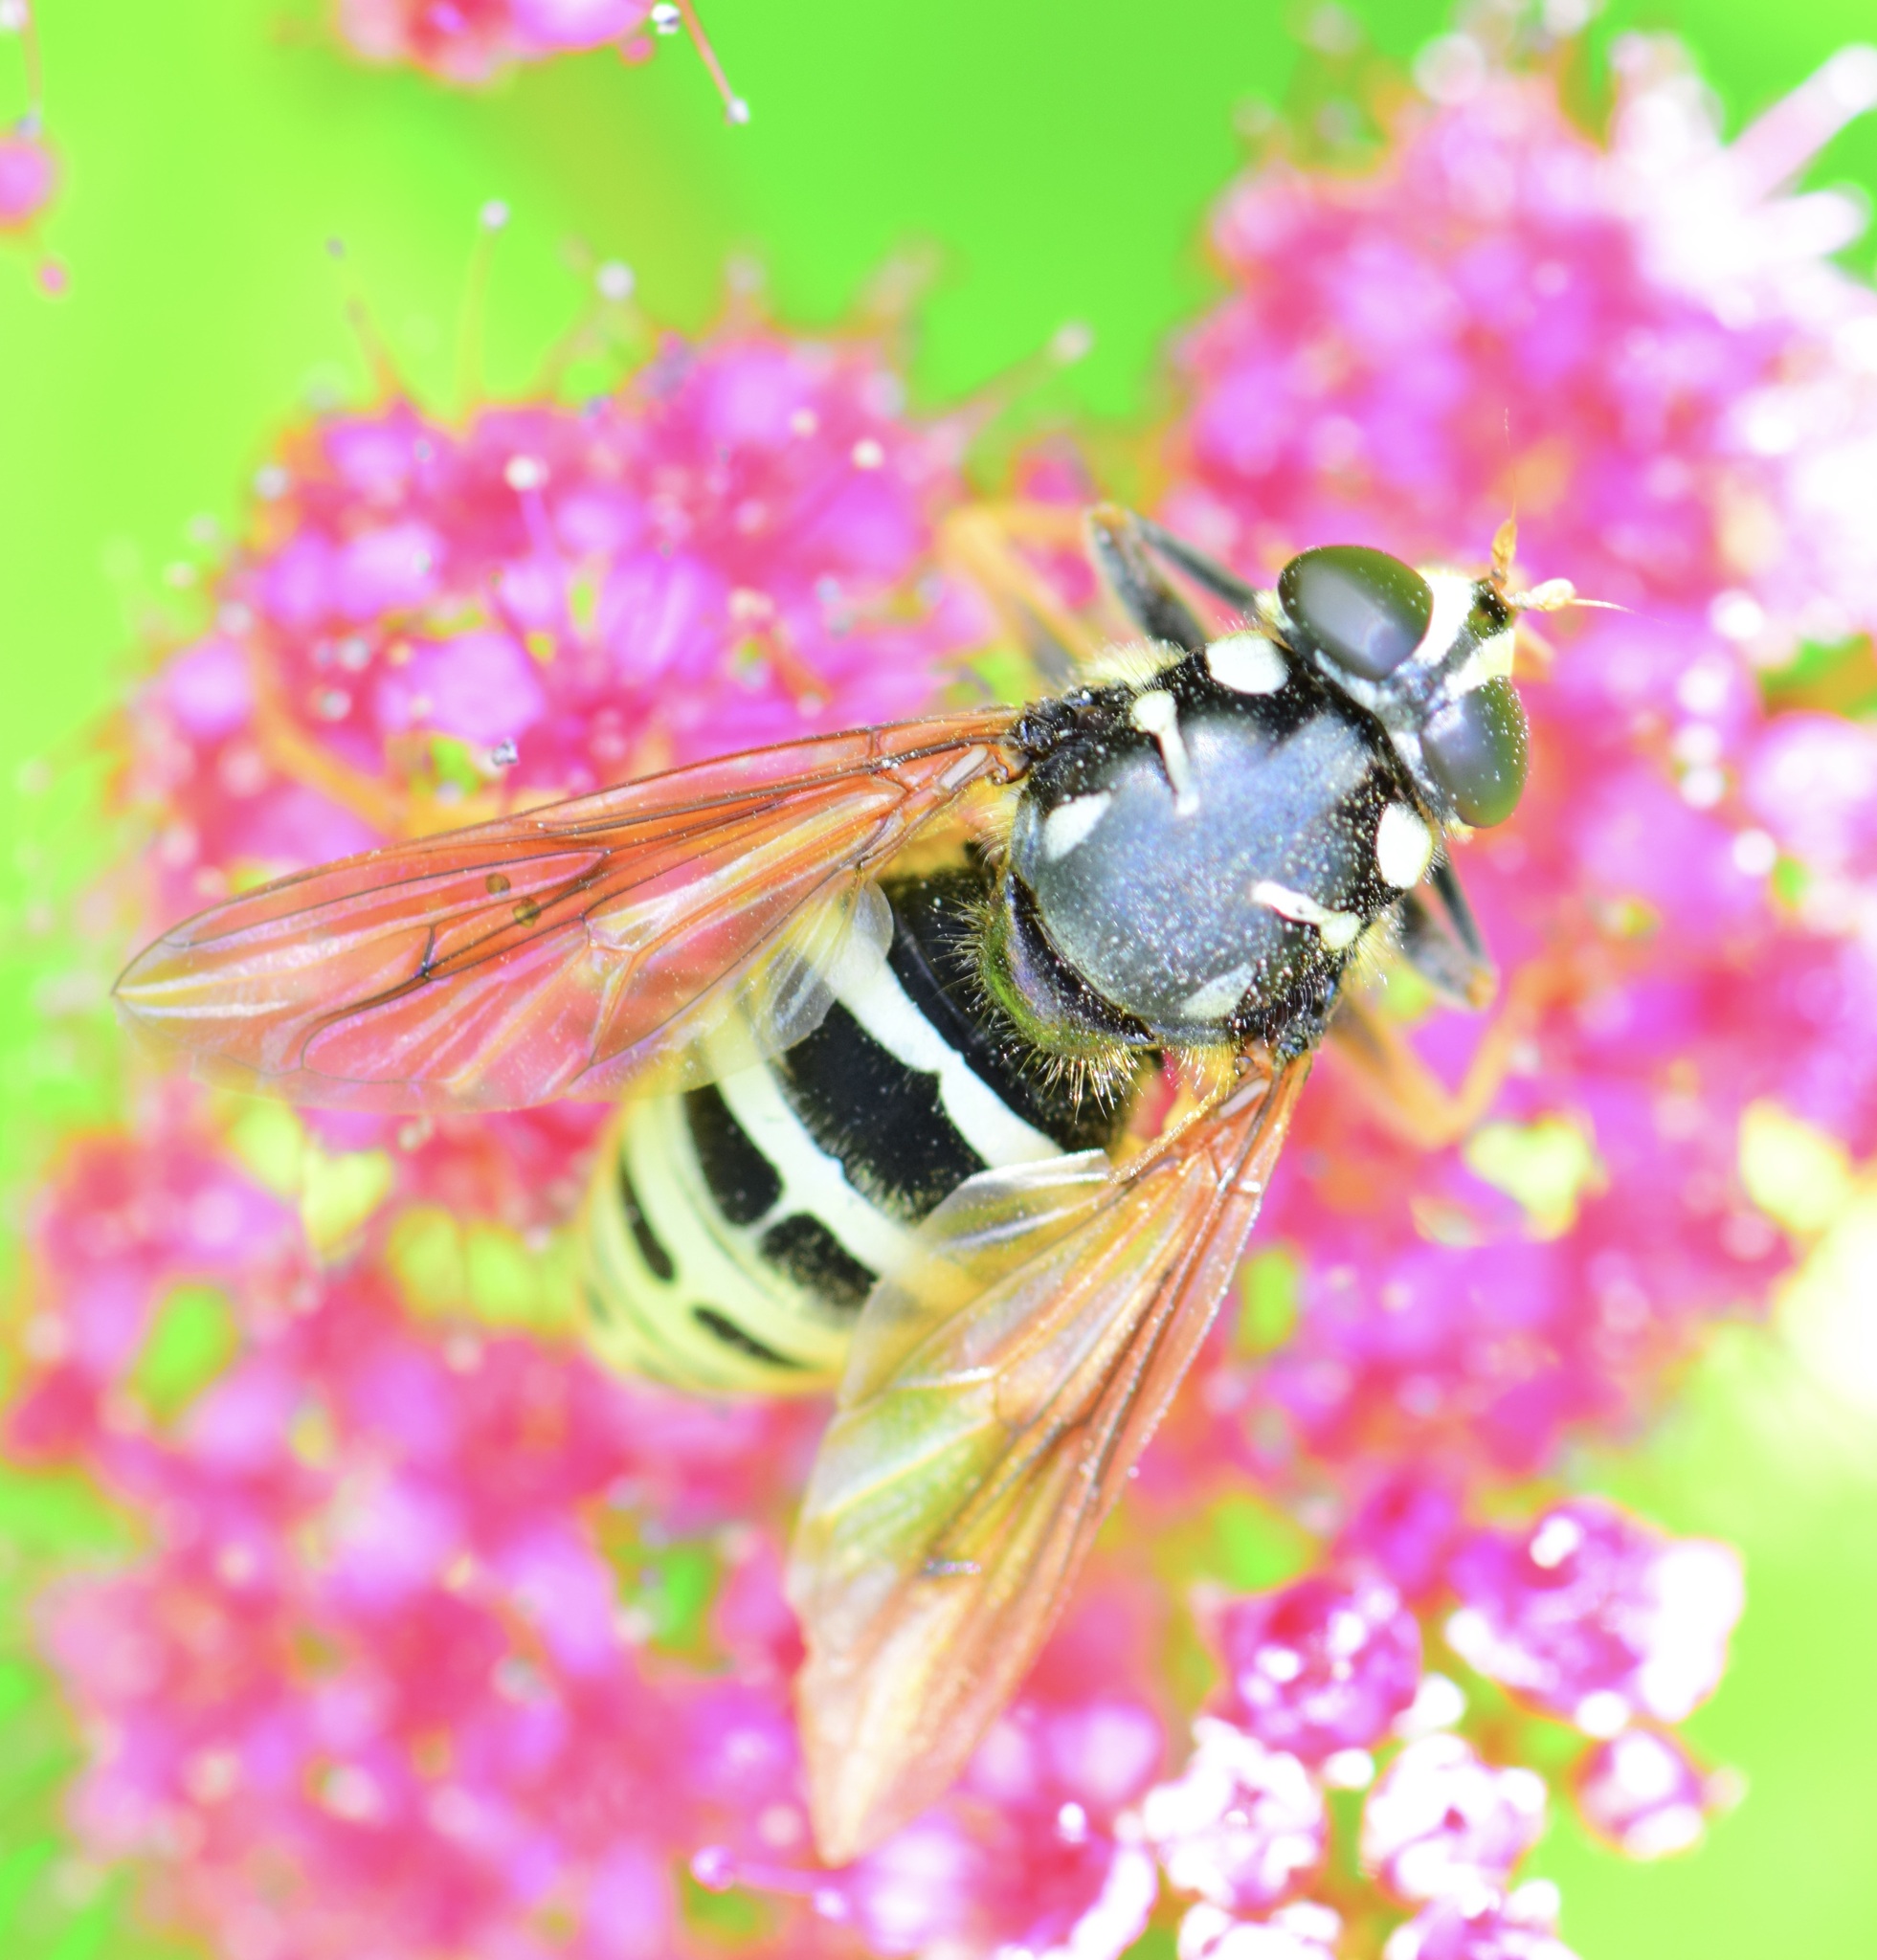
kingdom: Animalia
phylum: Arthropoda
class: Insecta
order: Diptera
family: Syrphidae
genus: Temnostoma
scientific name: Temnostoma excentricum
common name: Black-spotted falsehorn
